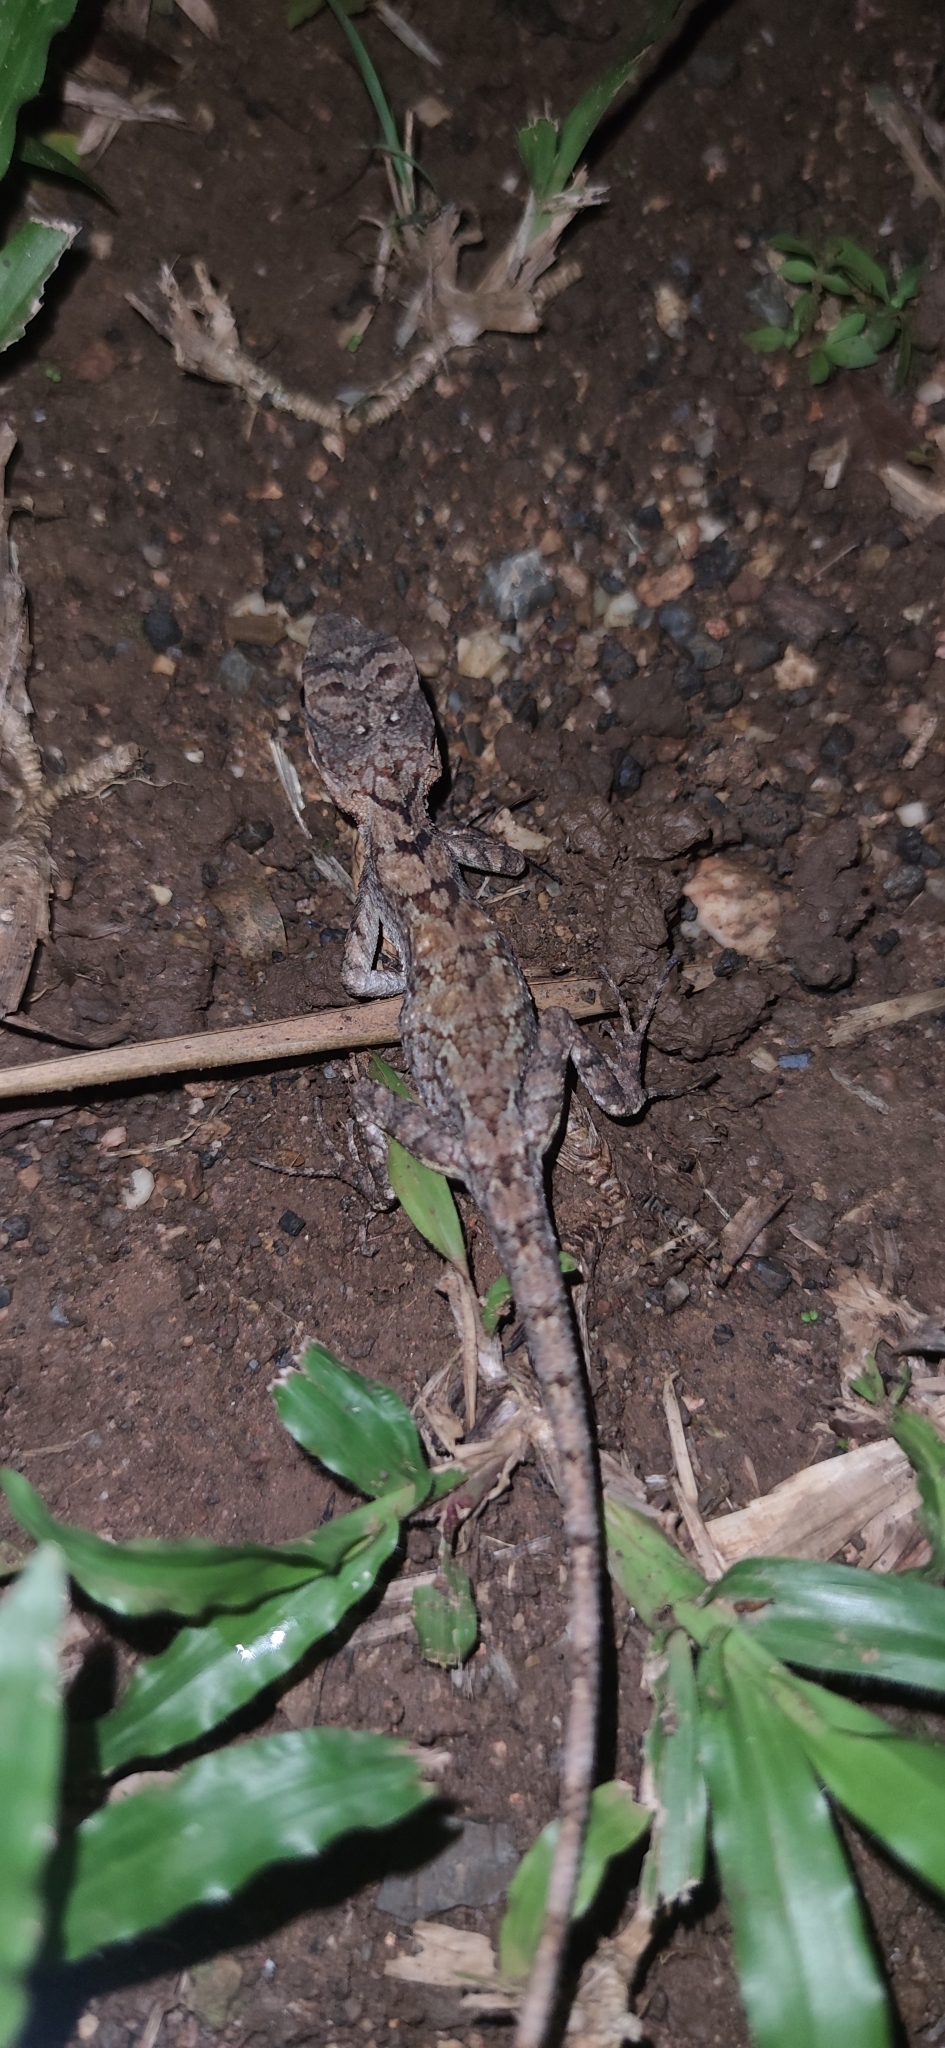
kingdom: Animalia
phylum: Chordata
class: Squamata
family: Agamidae
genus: Calotes
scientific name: Calotes goetzi
